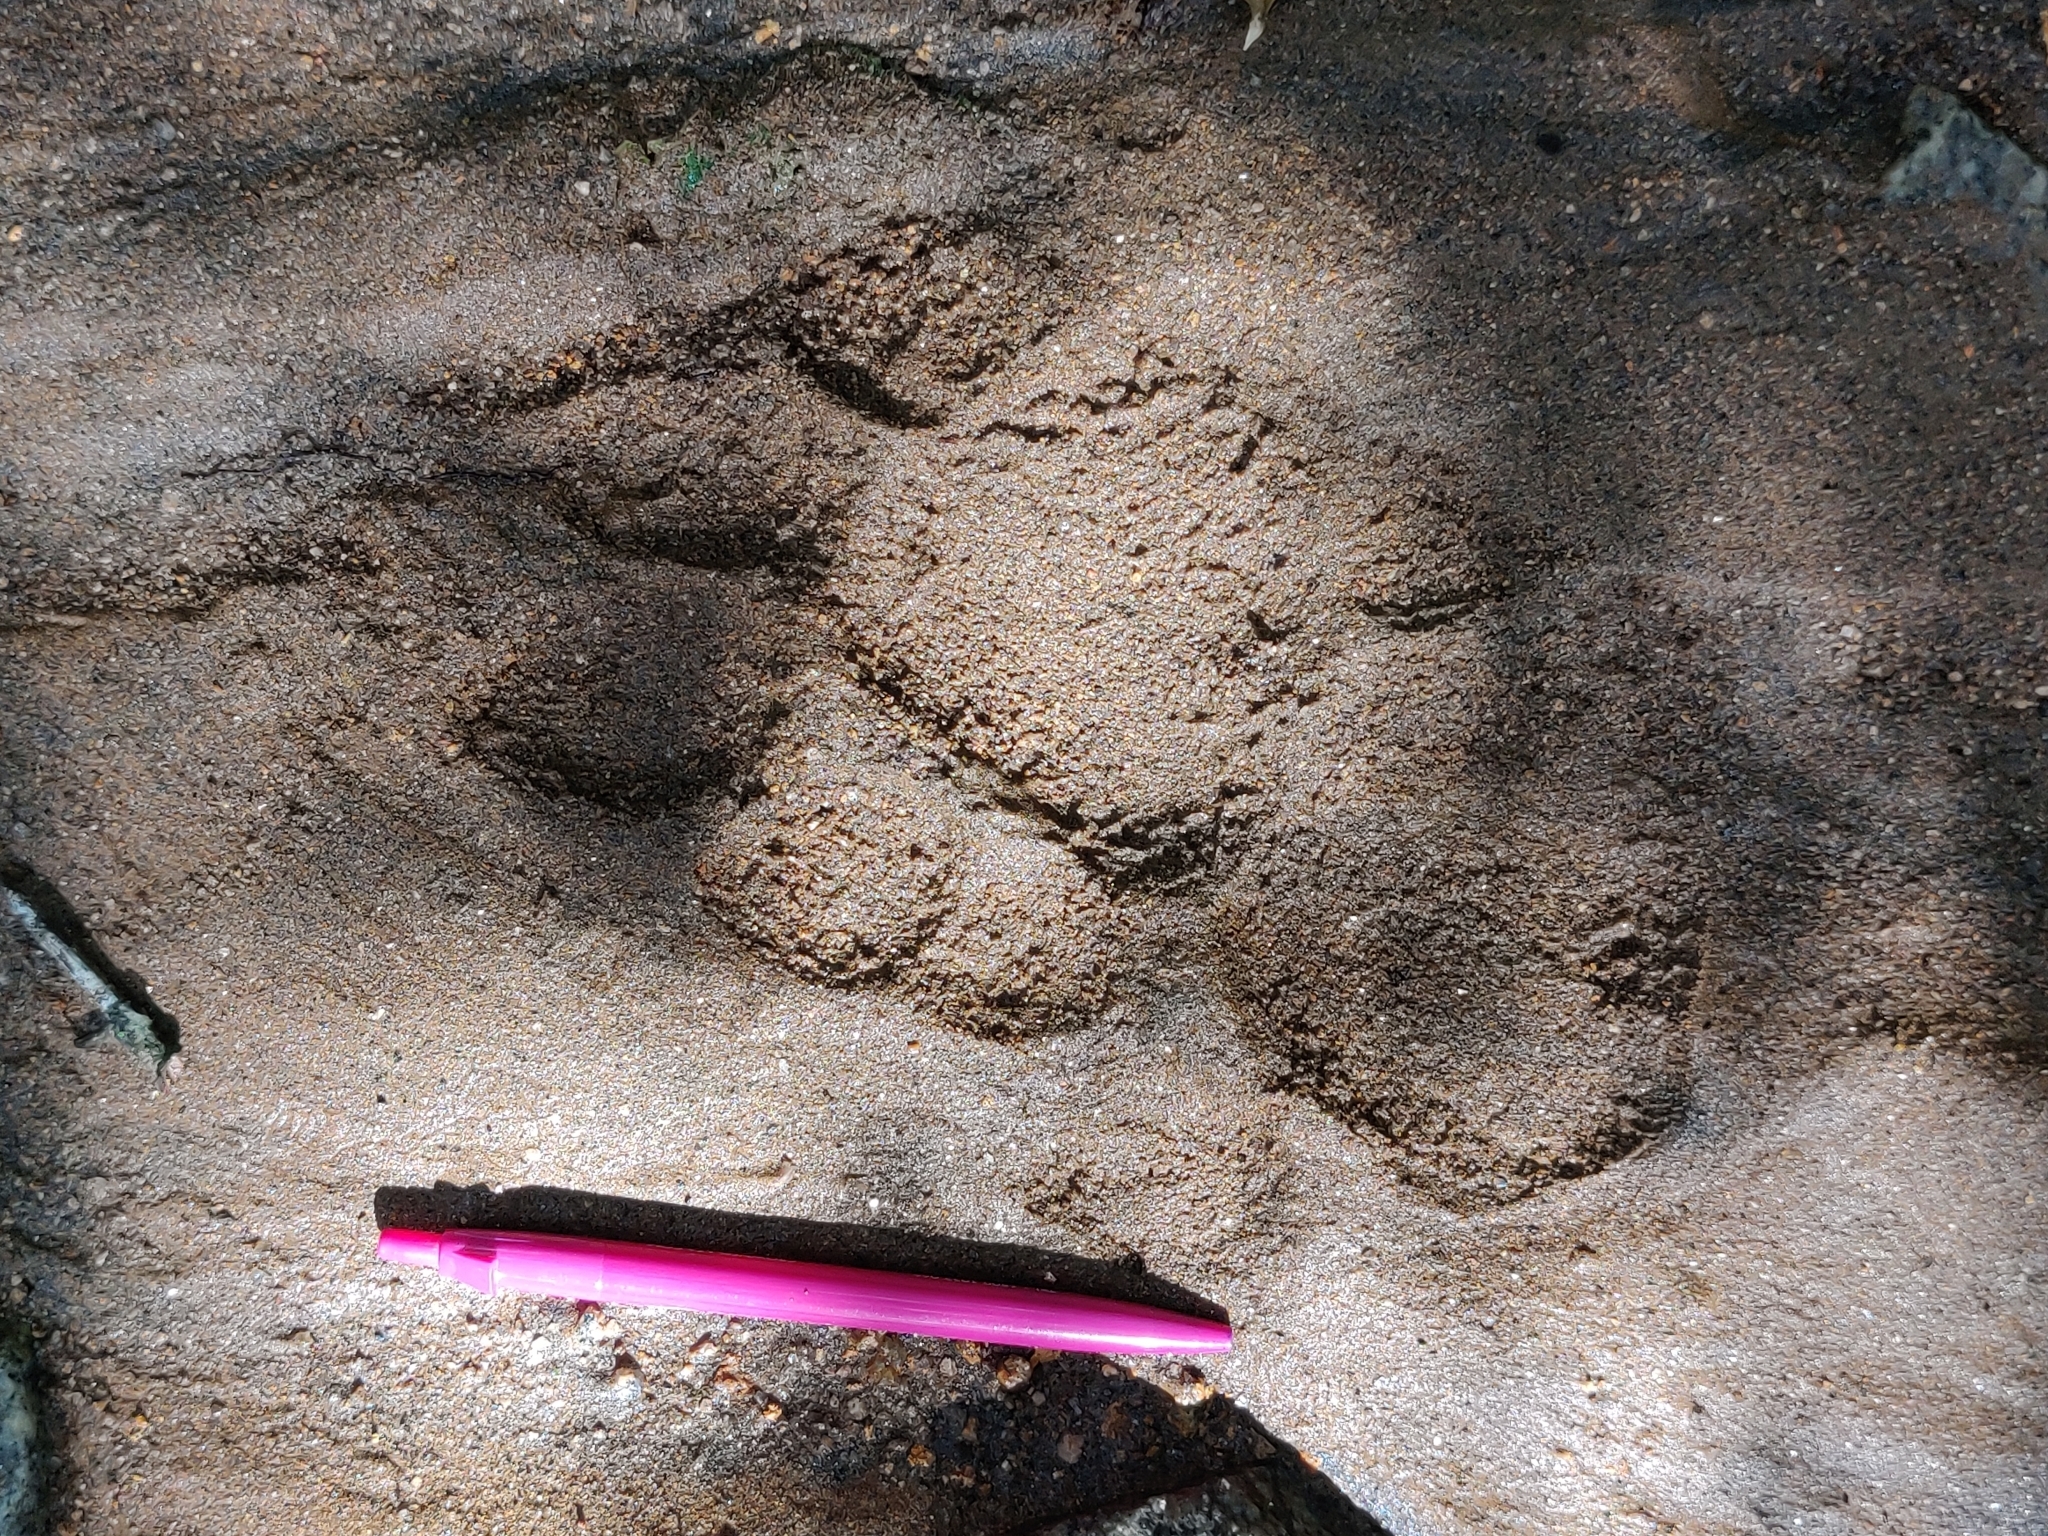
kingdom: Animalia
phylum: Chordata
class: Mammalia
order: Carnivora
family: Felidae
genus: Panthera
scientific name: Panthera tigris
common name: Tiger
